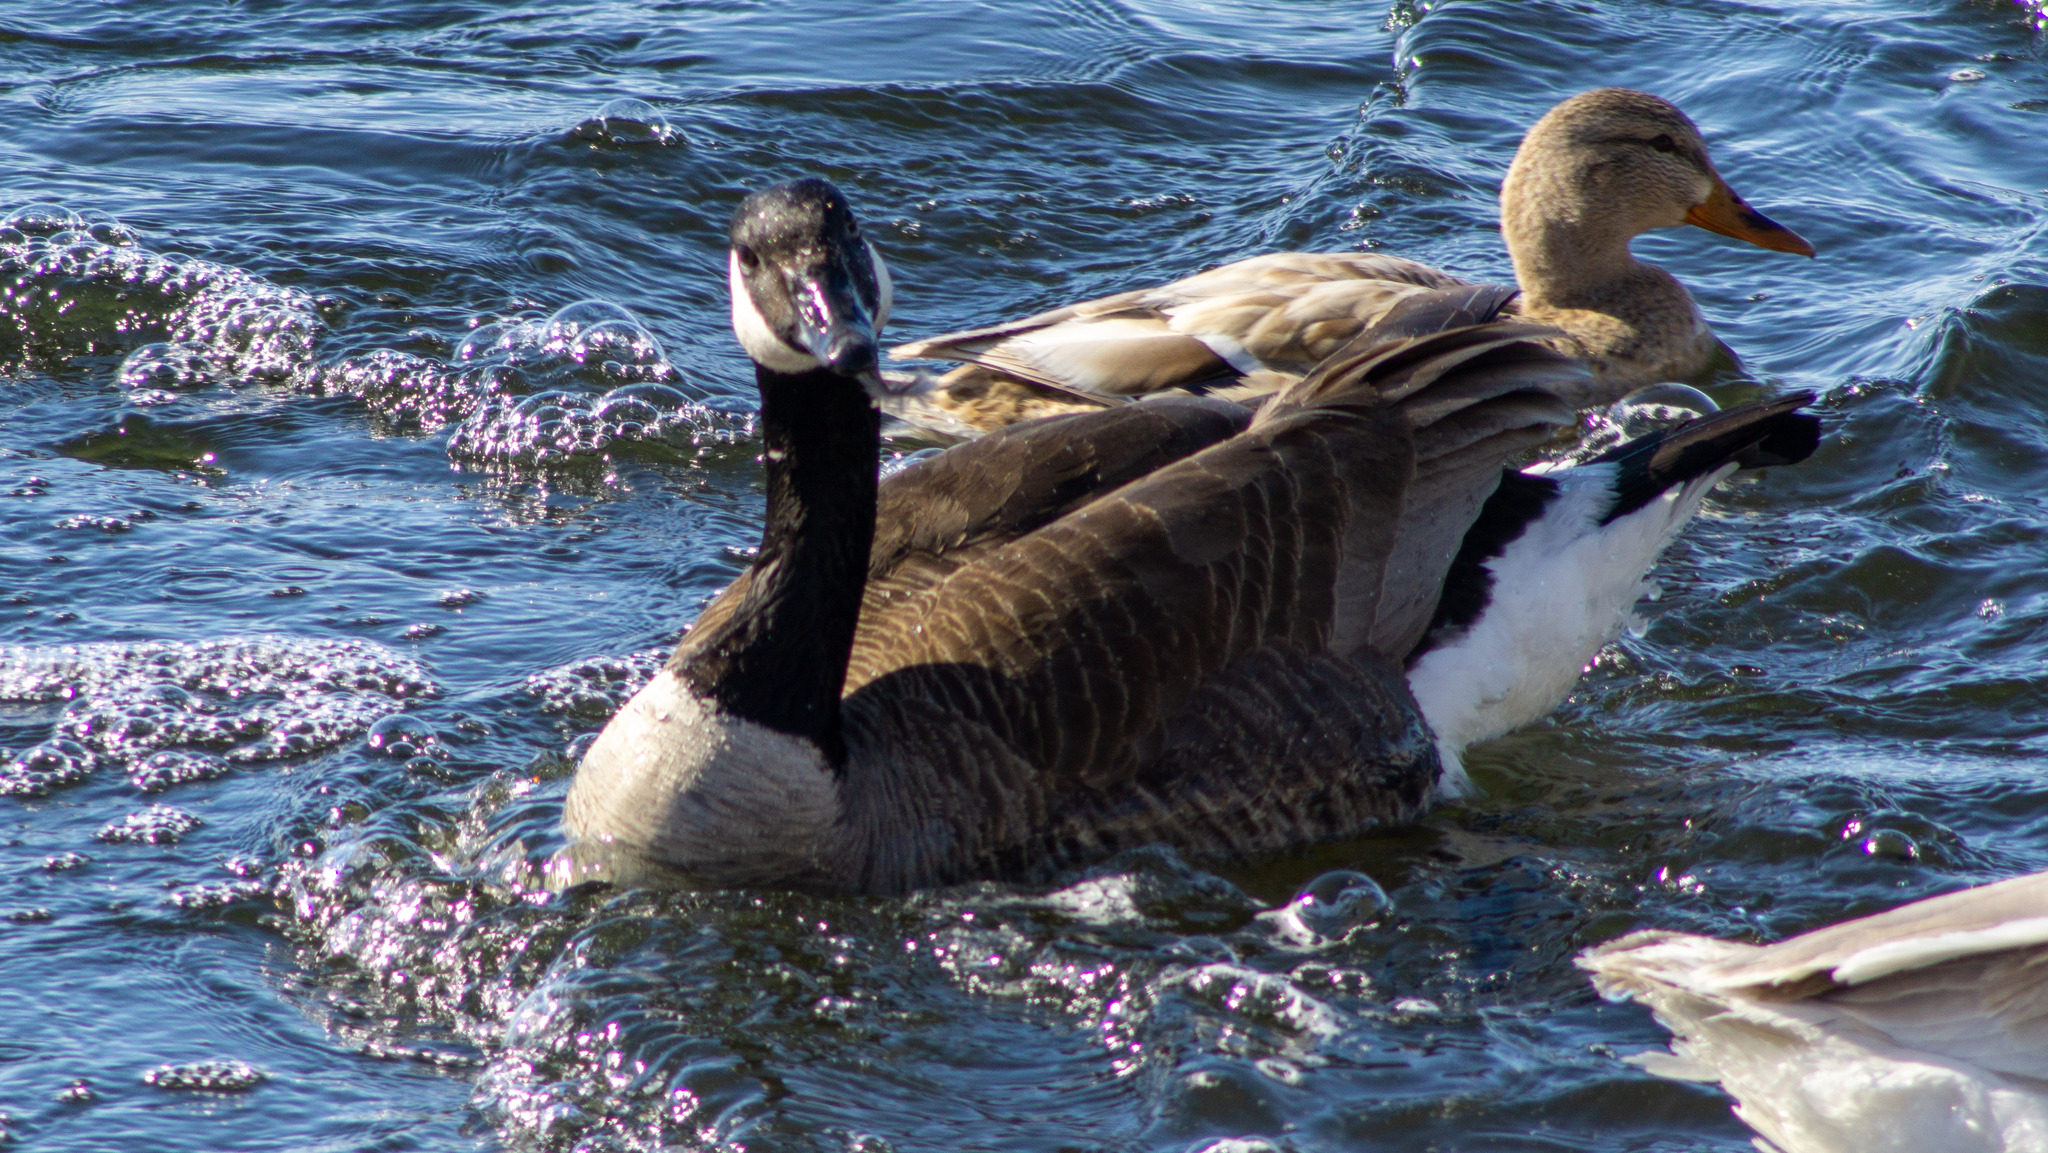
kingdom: Animalia
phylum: Chordata
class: Aves
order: Anseriformes
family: Anatidae
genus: Branta
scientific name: Branta canadensis
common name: Canada goose
